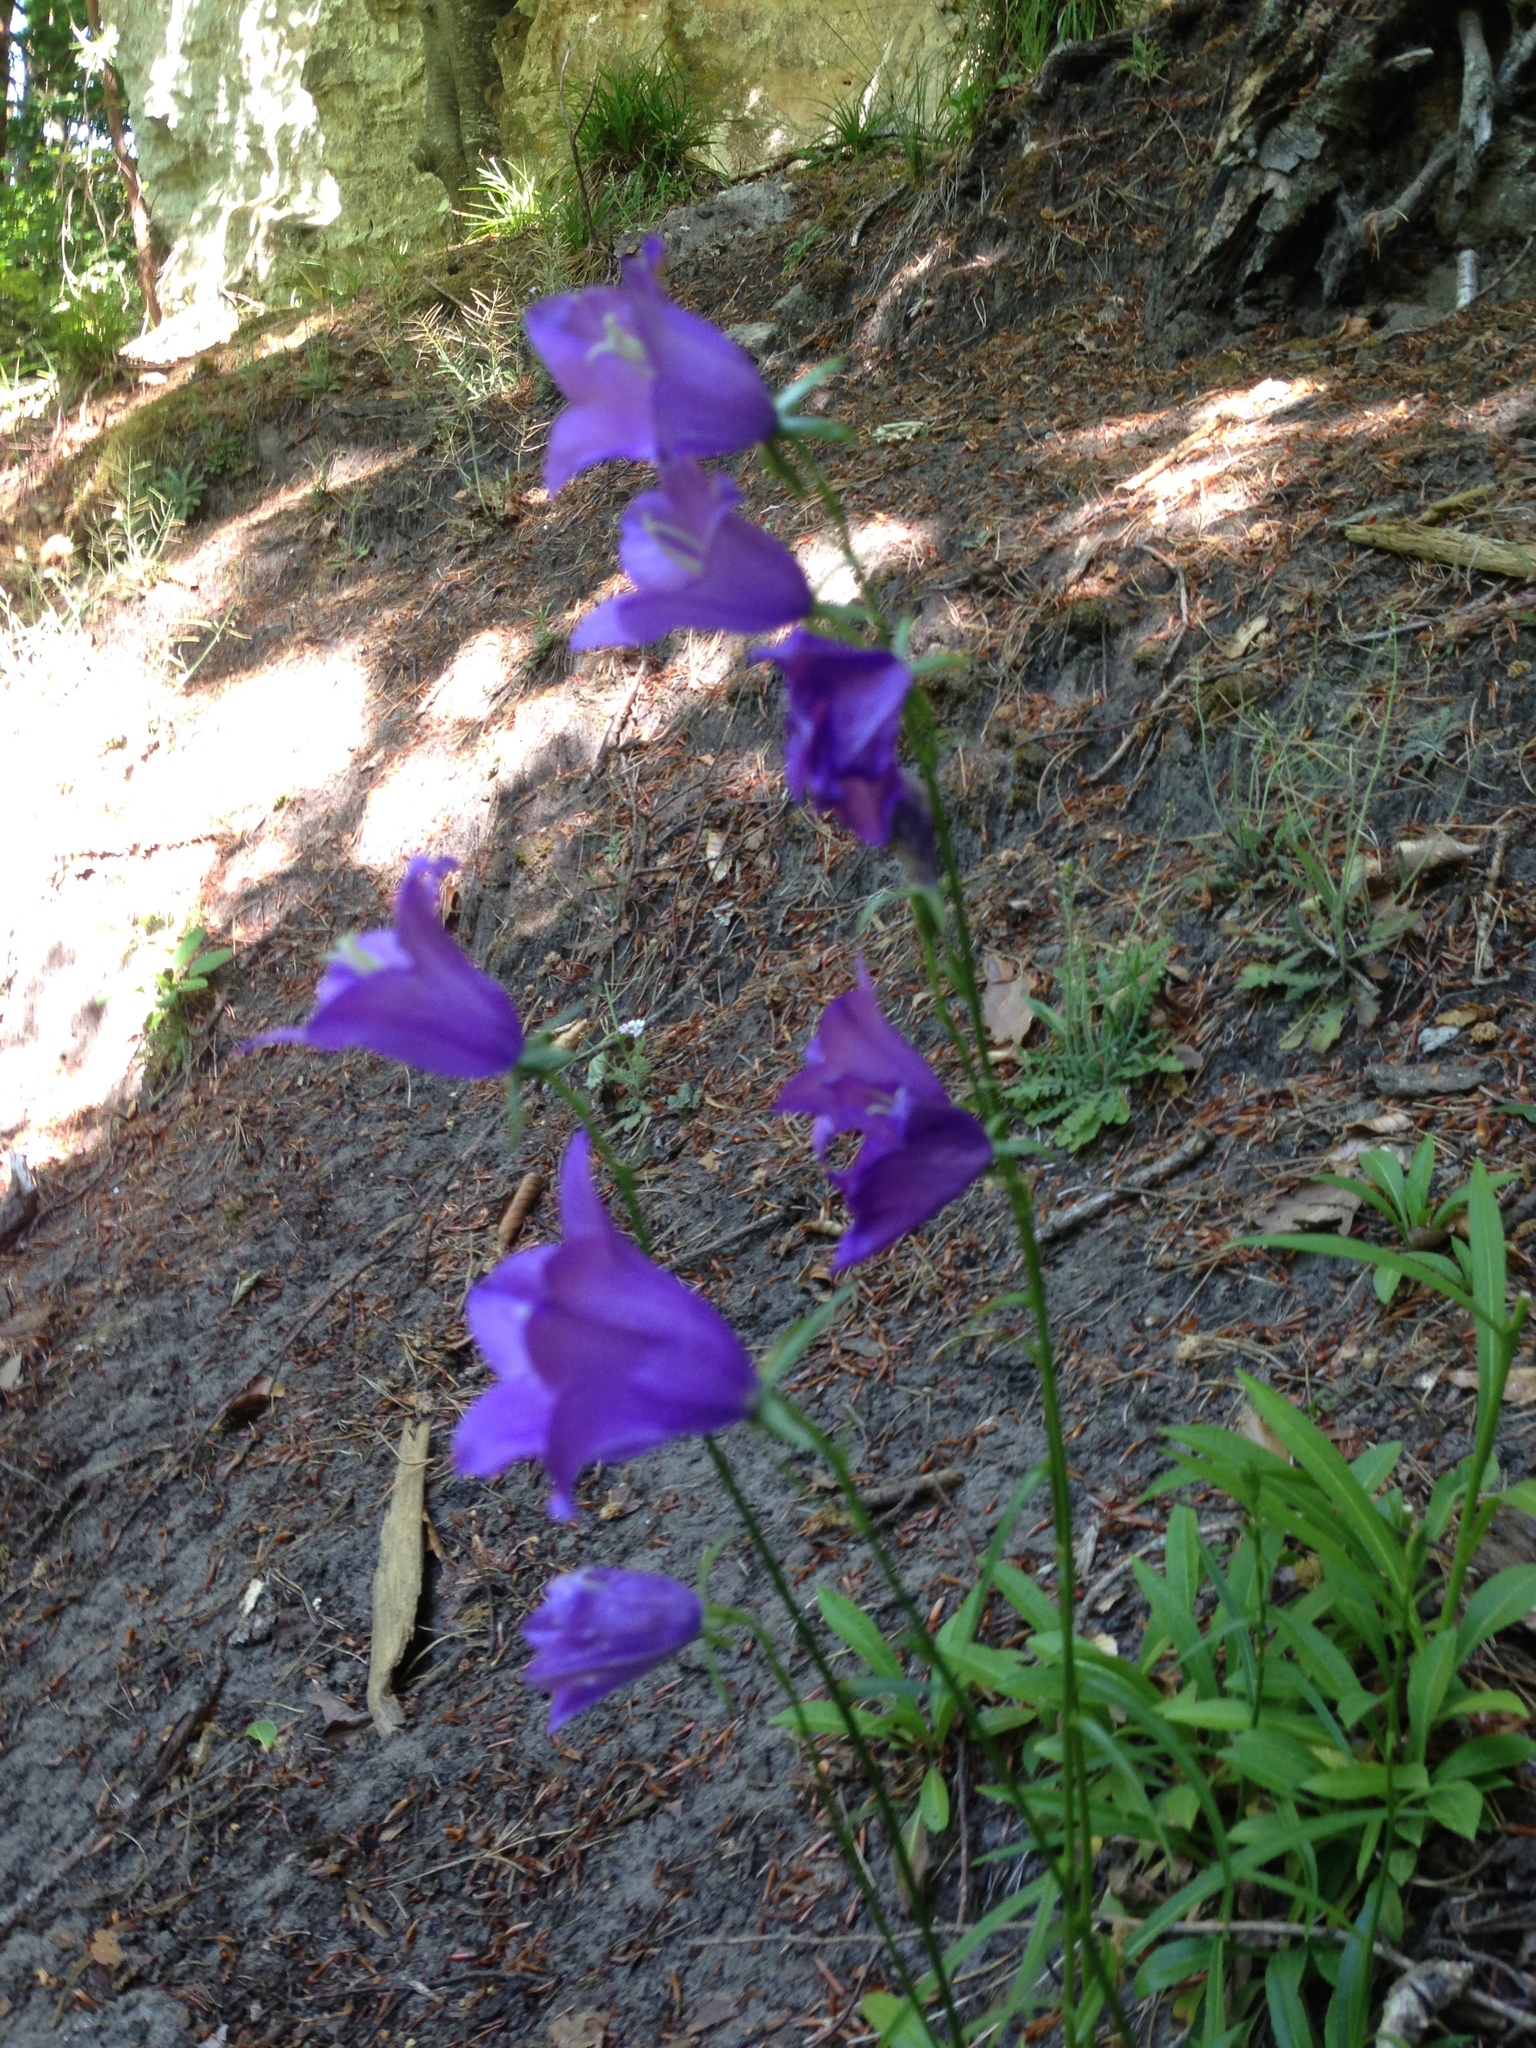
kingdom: Plantae
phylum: Tracheophyta
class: Magnoliopsida
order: Asterales
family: Campanulaceae
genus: Campanula
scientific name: Campanula persicifolia
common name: Peach-leaved bellflower
